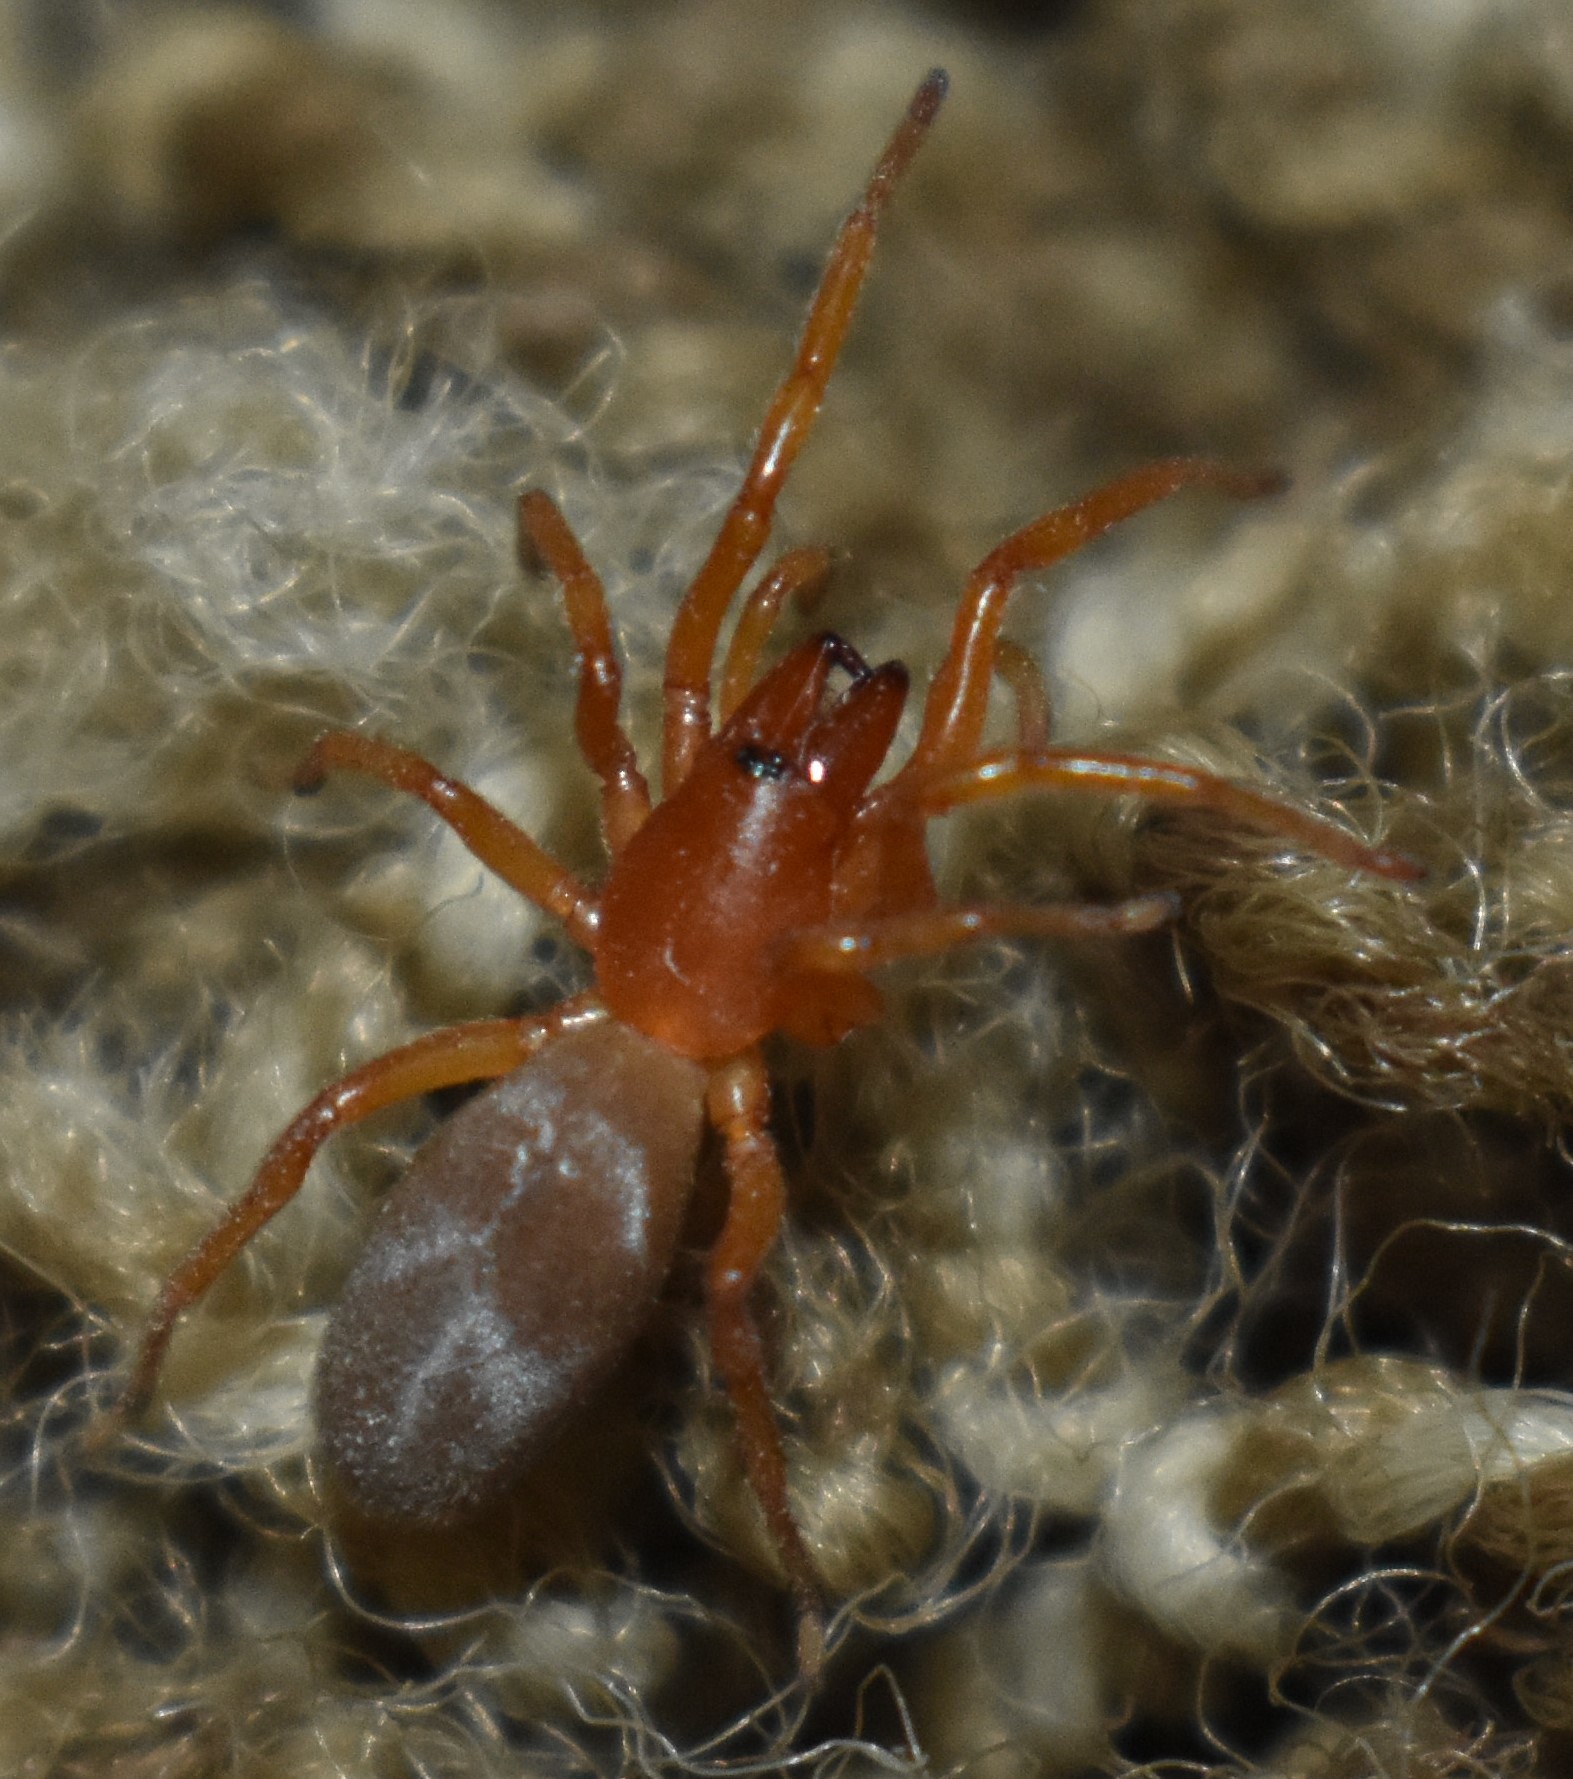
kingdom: Animalia
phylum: Arthropoda
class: Arachnida
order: Araneae
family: Dysderidae
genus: Dysdera
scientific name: Dysdera crocata
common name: Woodlouse spider
